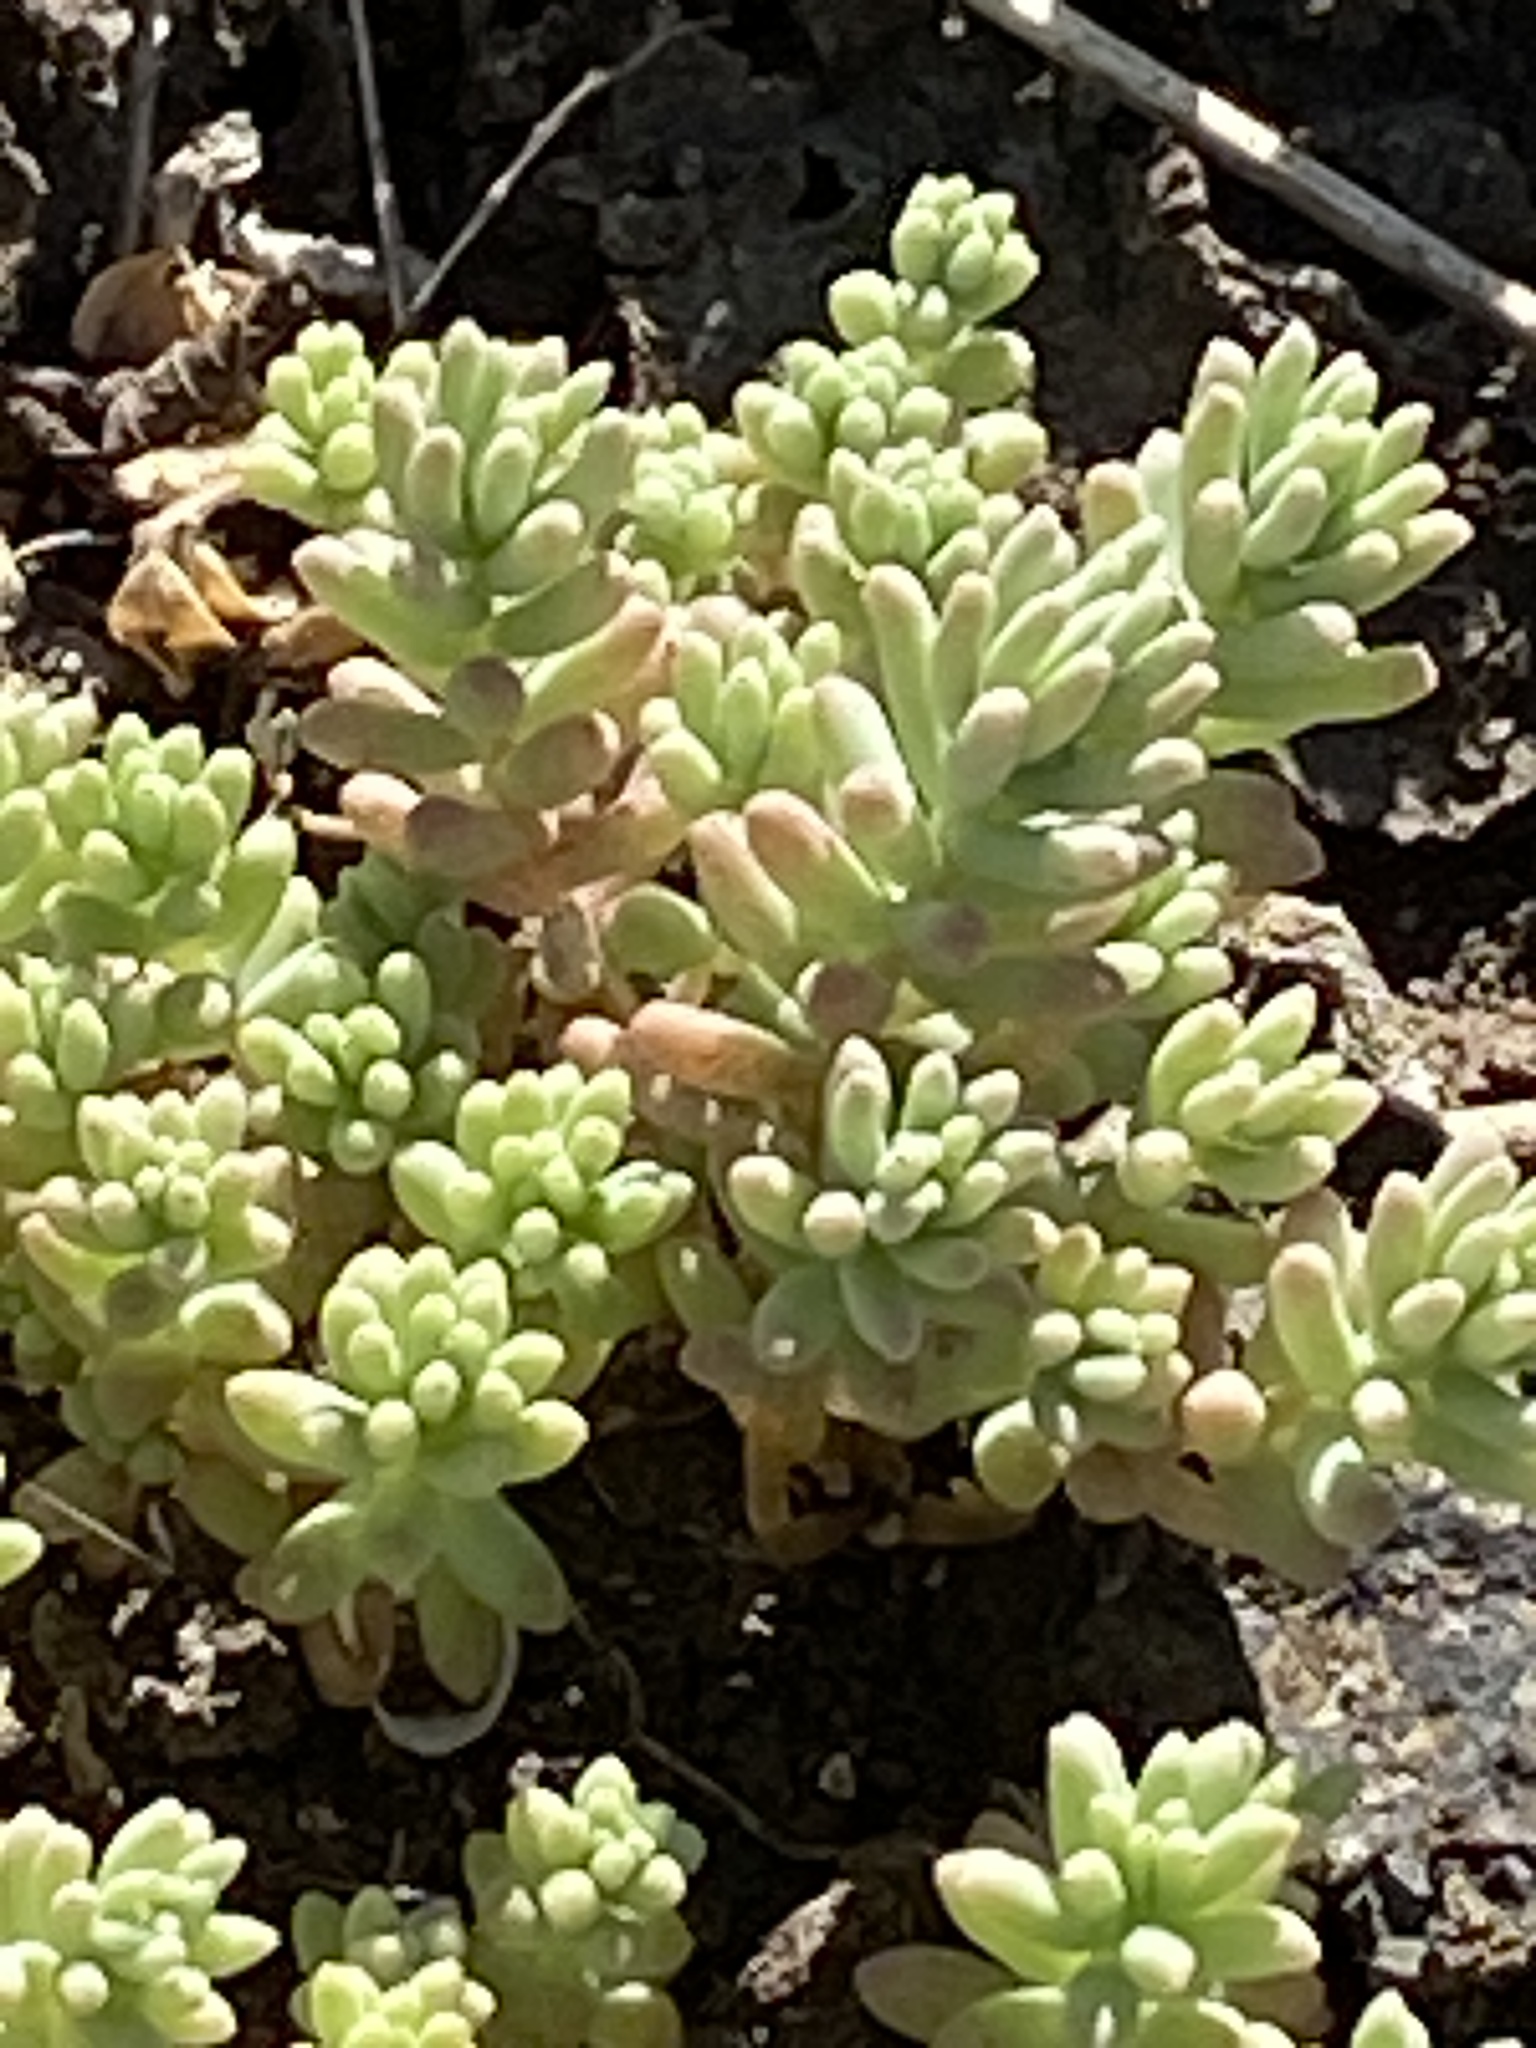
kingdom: Plantae
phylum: Tracheophyta
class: Magnoliopsida
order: Saxifragales
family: Crassulaceae
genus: Sedum
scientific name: Sedum nuttallii
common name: Yellow stonecrop
